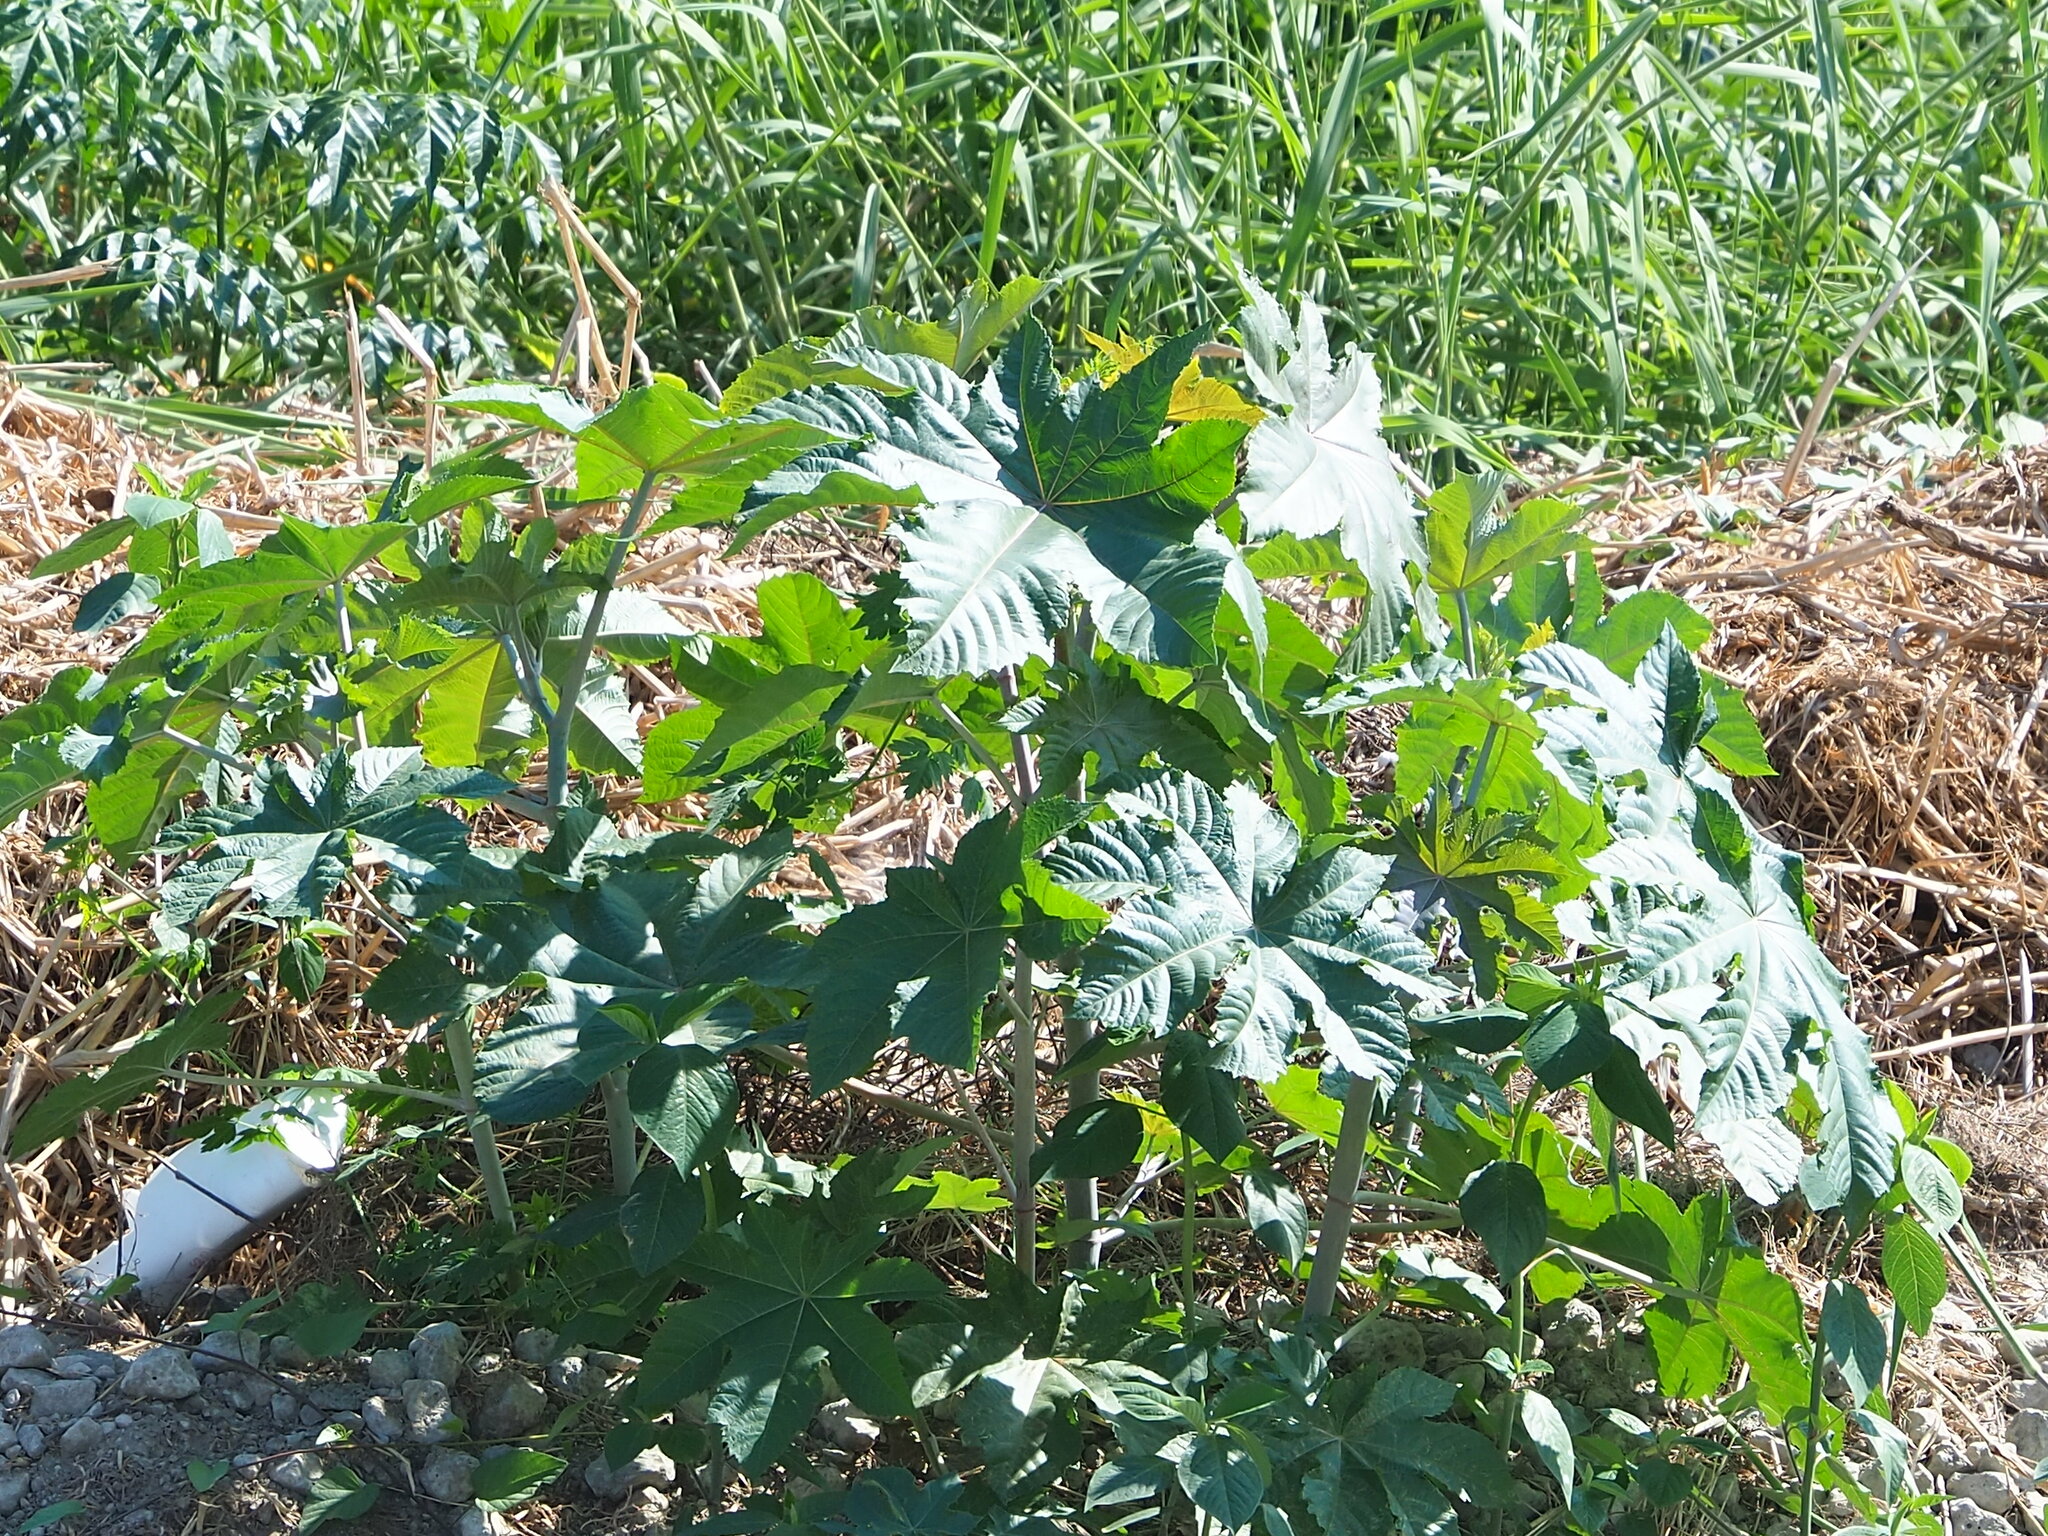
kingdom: Plantae
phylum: Tracheophyta
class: Magnoliopsida
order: Malpighiales
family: Euphorbiaceae
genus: Ricinus
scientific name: Ricinus communis
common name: Castor-oil-plant
